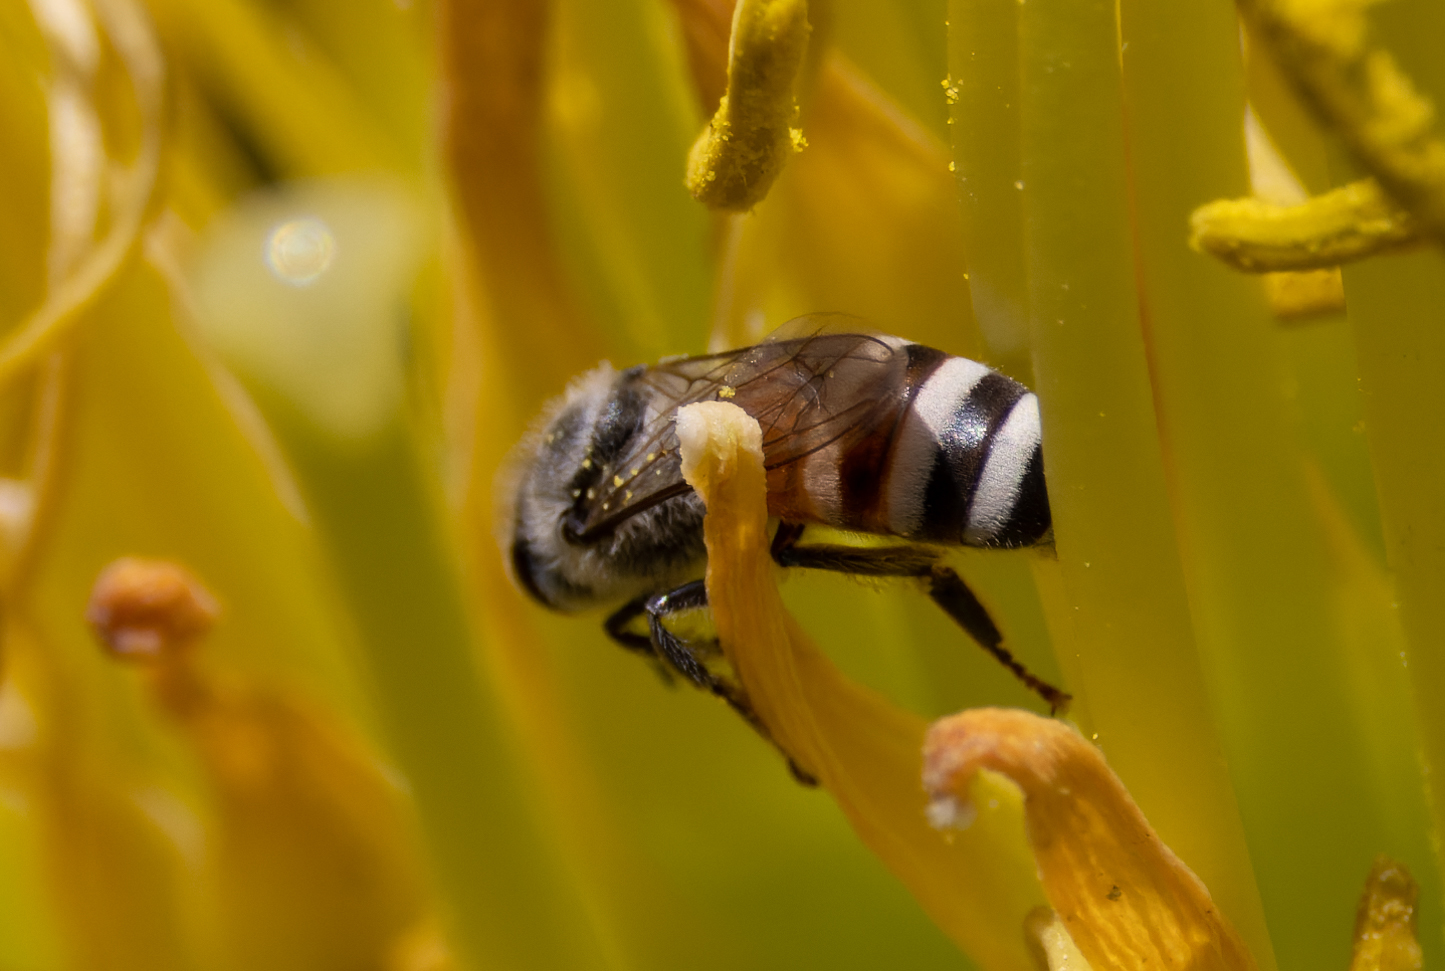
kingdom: Animalia
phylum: Arthropoda
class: Insecta
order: Hymenoptera
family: Apidae
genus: Apis
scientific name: Apis florea
